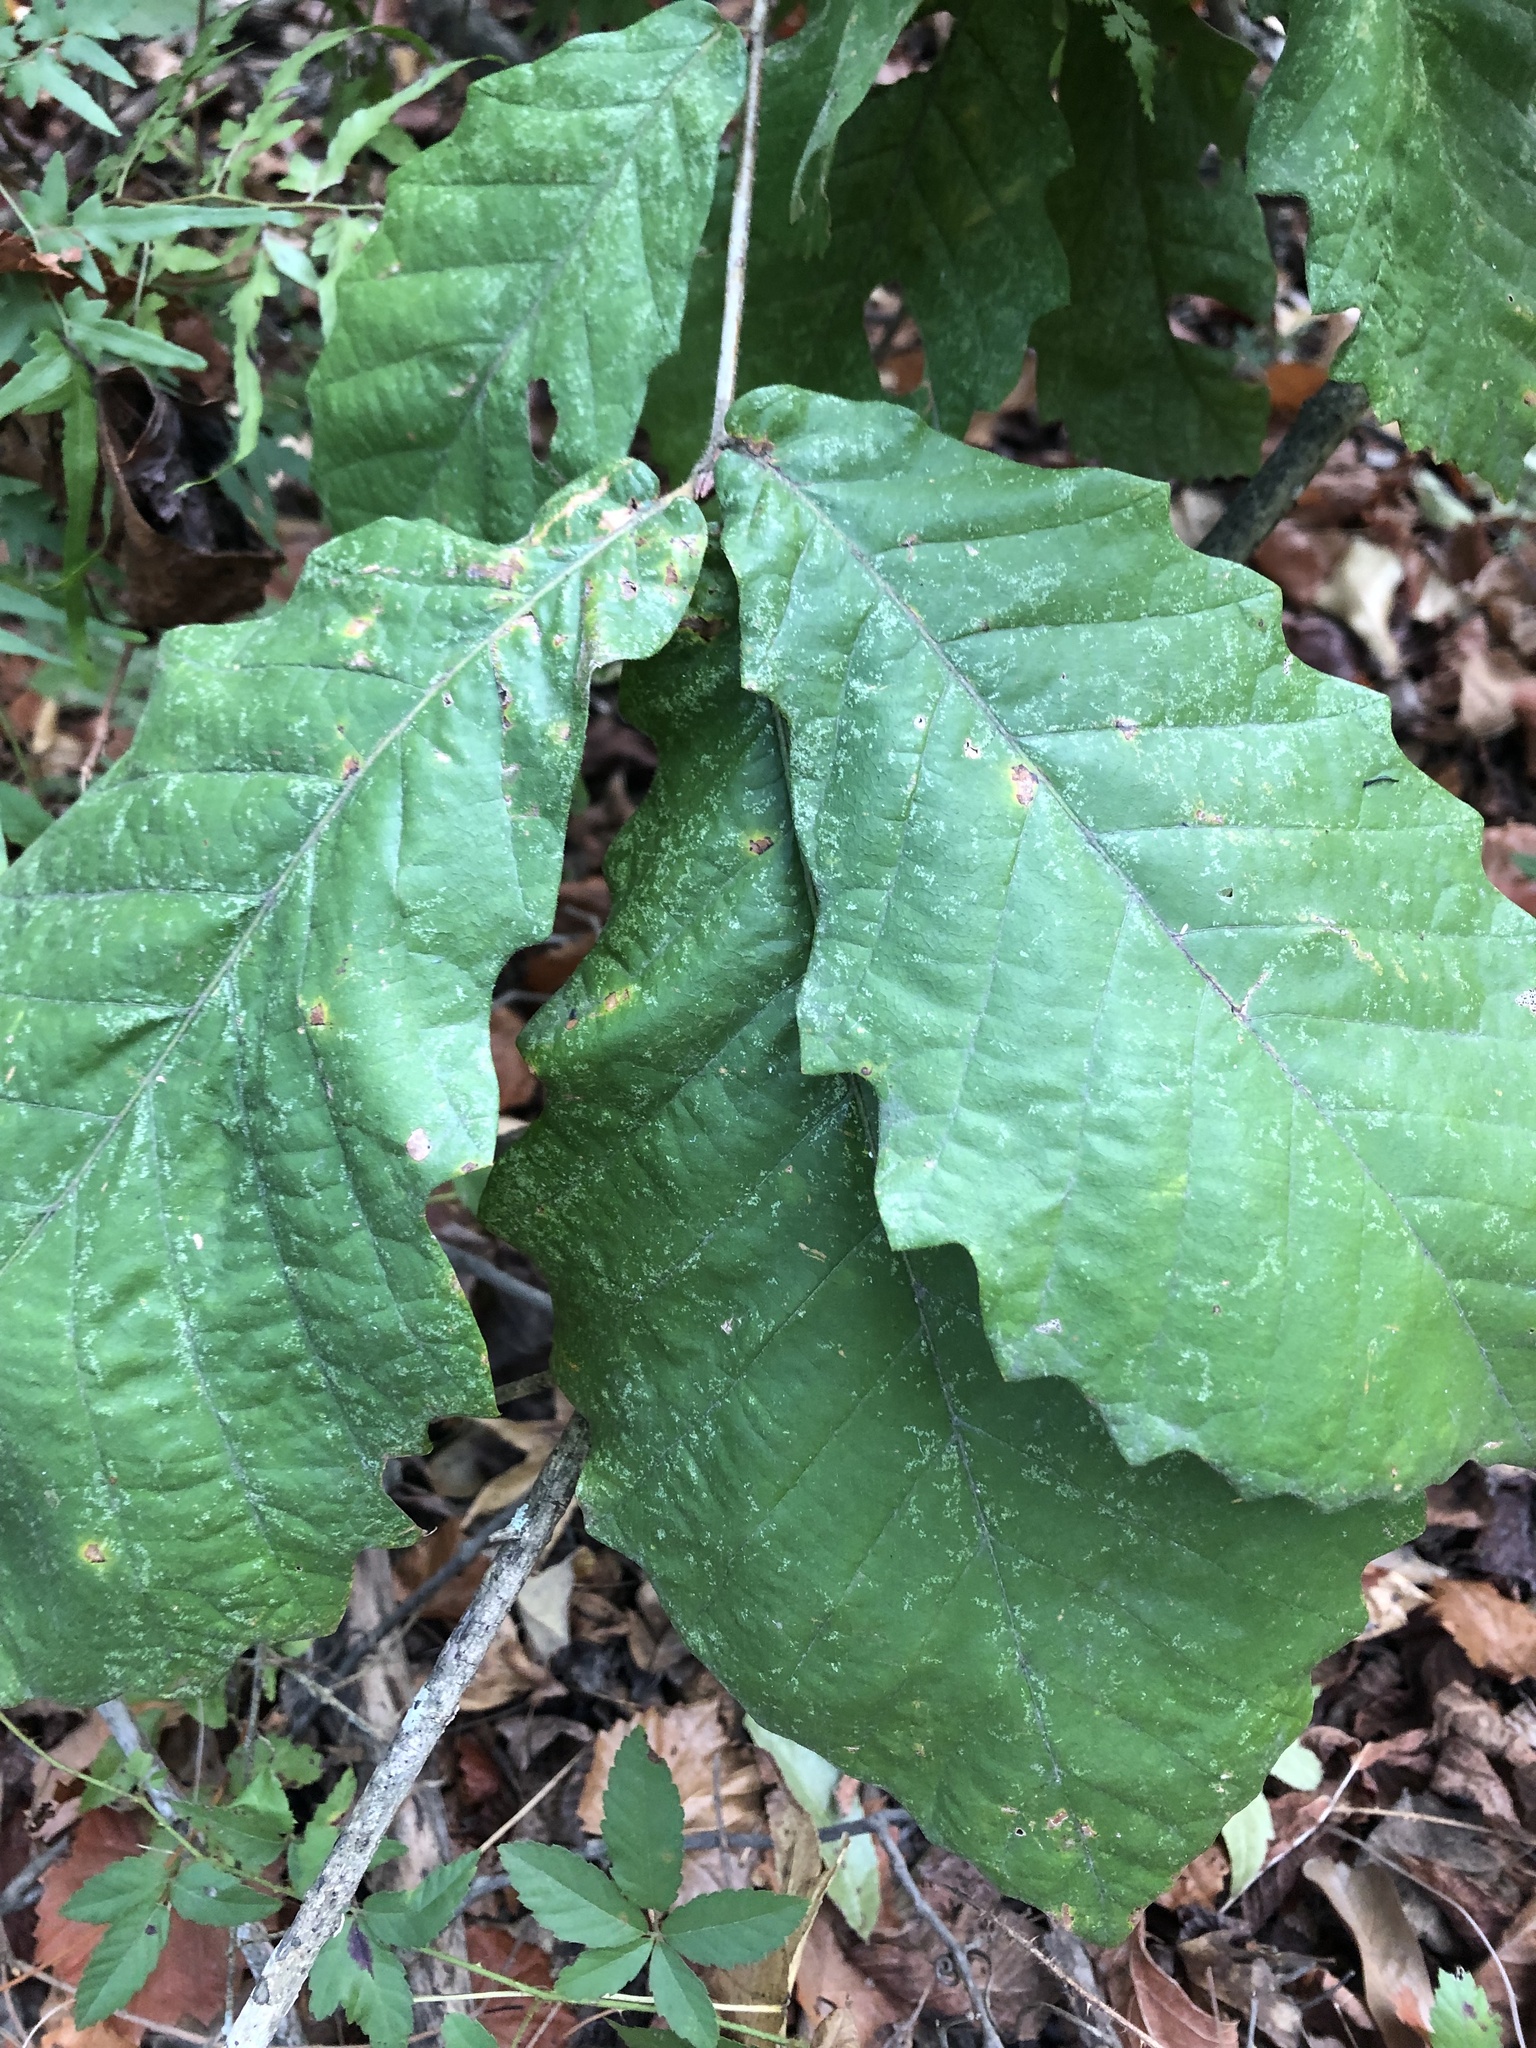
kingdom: Plantae
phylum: Tracheophyta
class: Magnoliopsida
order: Fagales
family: Fagaceae
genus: Quercus
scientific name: Quercus michauxii
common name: Swamp chestnut oak
